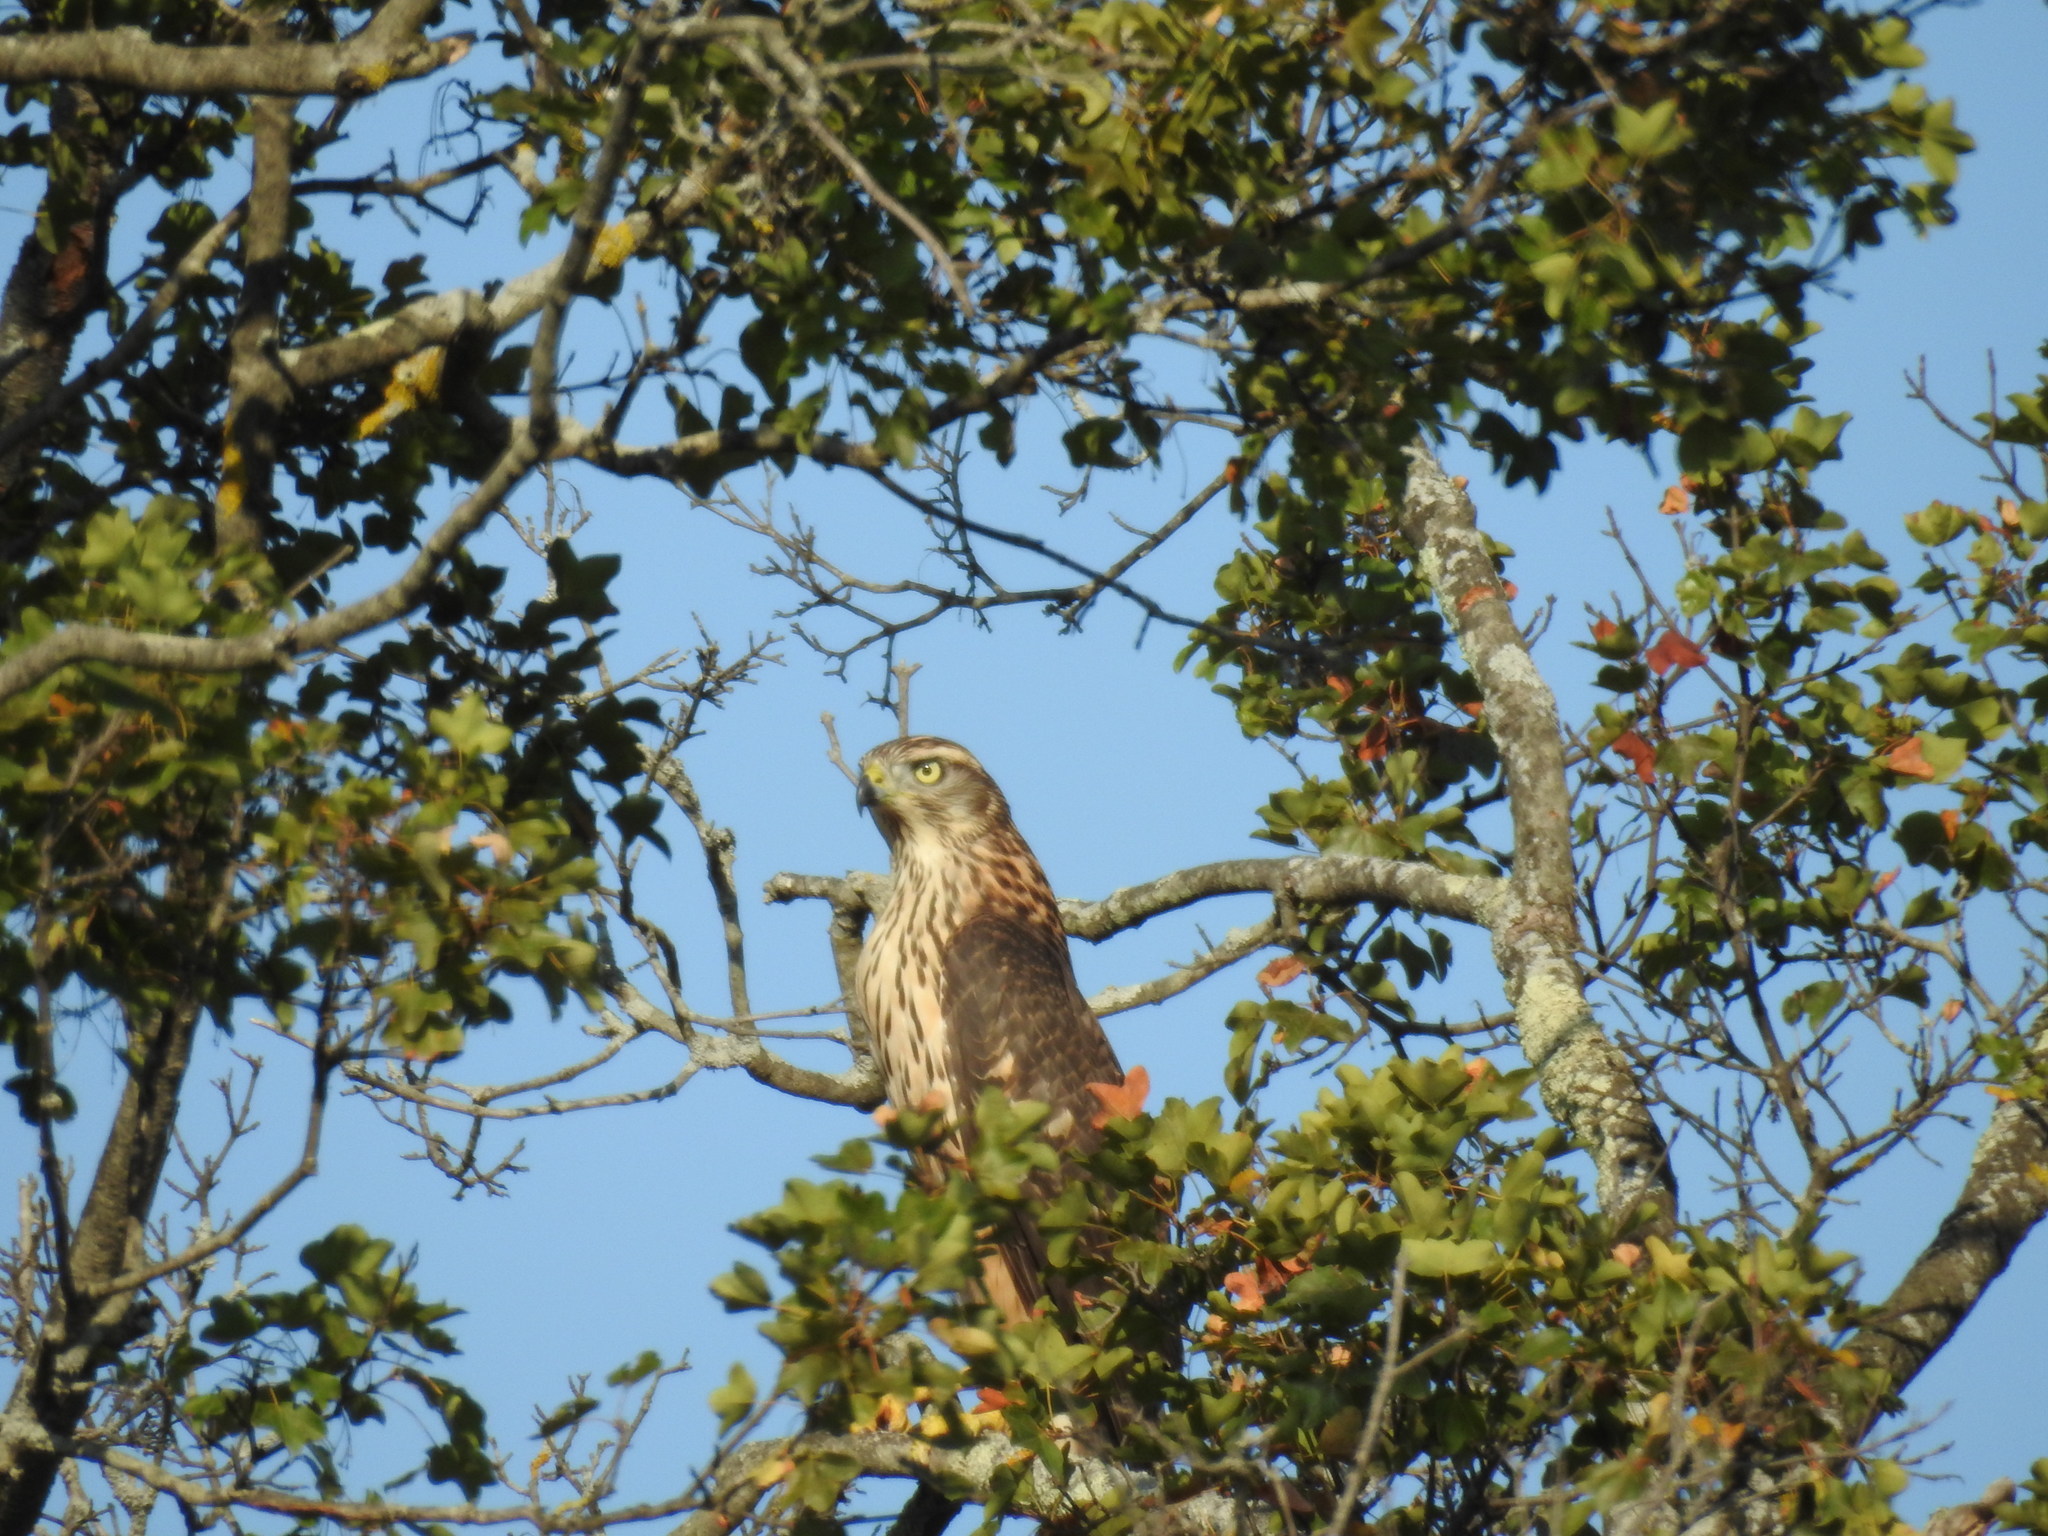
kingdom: Animalia
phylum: Chordata
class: Aves
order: Accipitriformes
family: Accipitridae
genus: Accipiter
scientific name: Accipiter gentilis
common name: Northern goshawk
